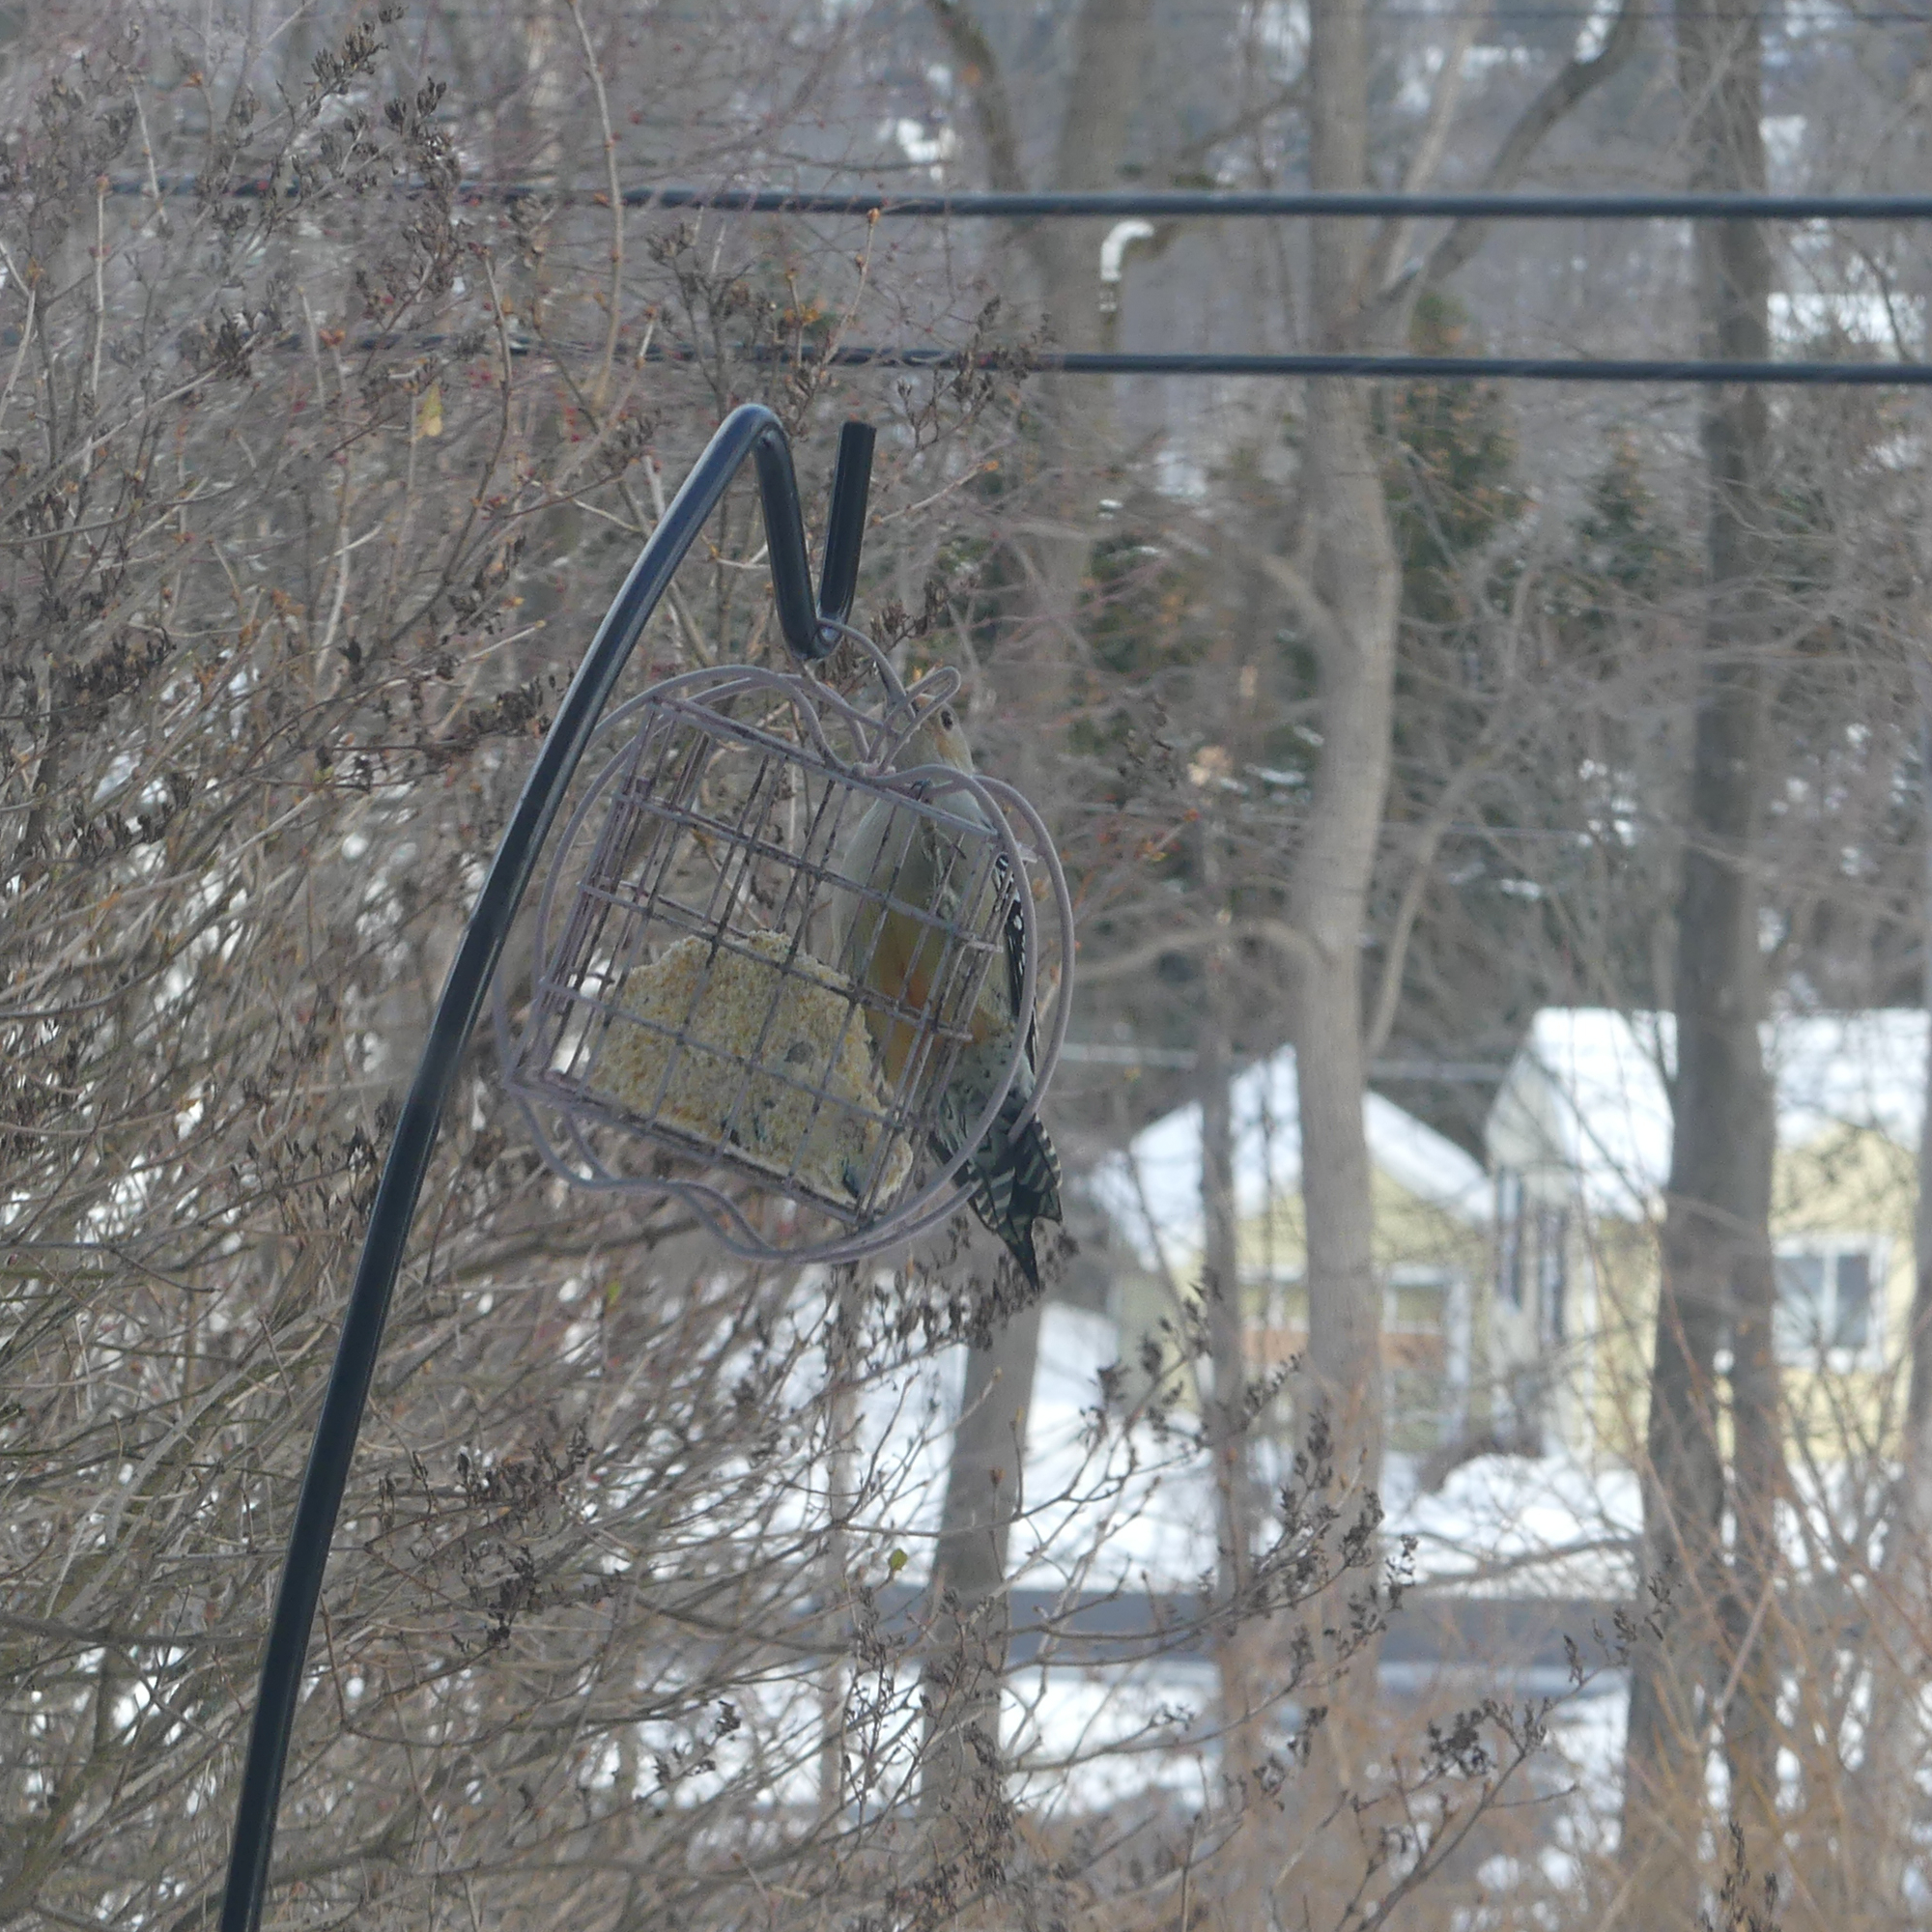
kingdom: Animalia
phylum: Chordata
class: Aves
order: Piciformes
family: Picidae
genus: Melanerpes
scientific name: Melanerpes carolinus
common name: Red-bellied woodpecker
